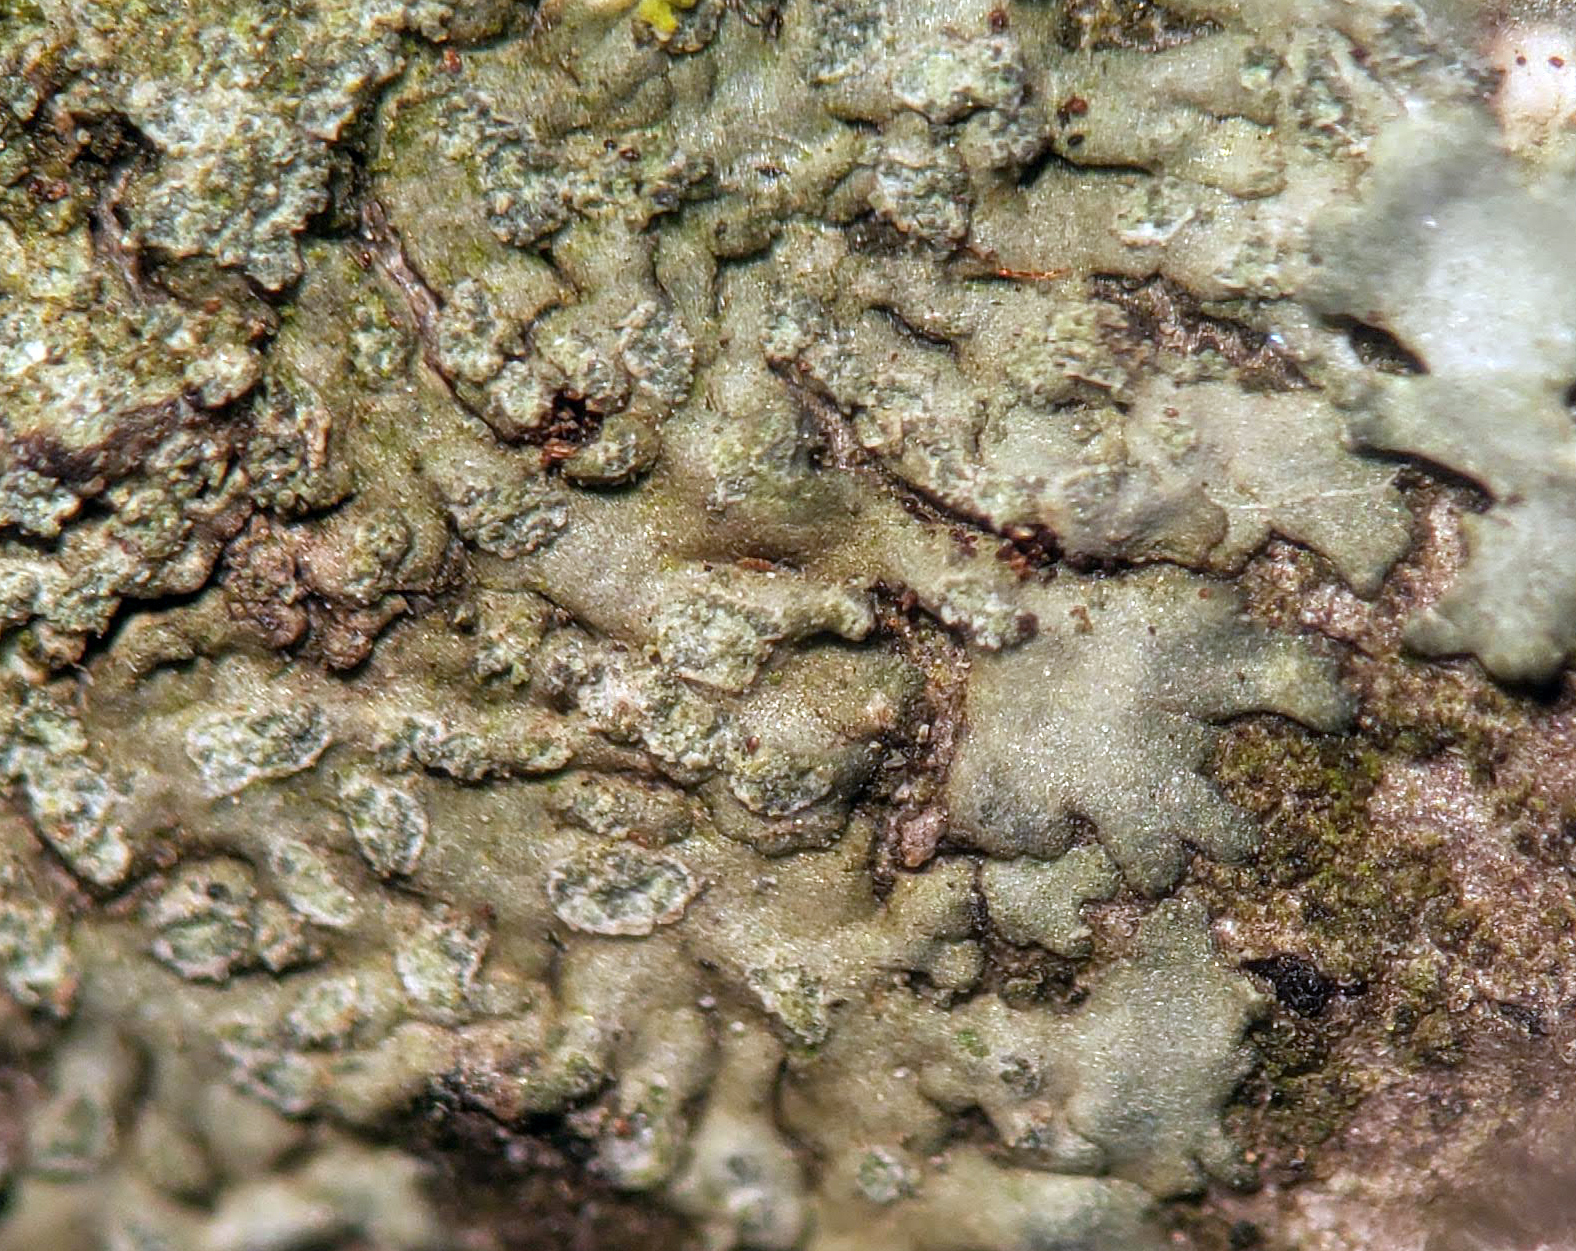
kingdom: Fungi
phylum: Ascomycota
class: Lecanoromycetes
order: Caliciales
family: Physciaceae
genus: Hyperphyscia
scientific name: Hyperphyscia adglutinata
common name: Grainy shadow-crust lichen
